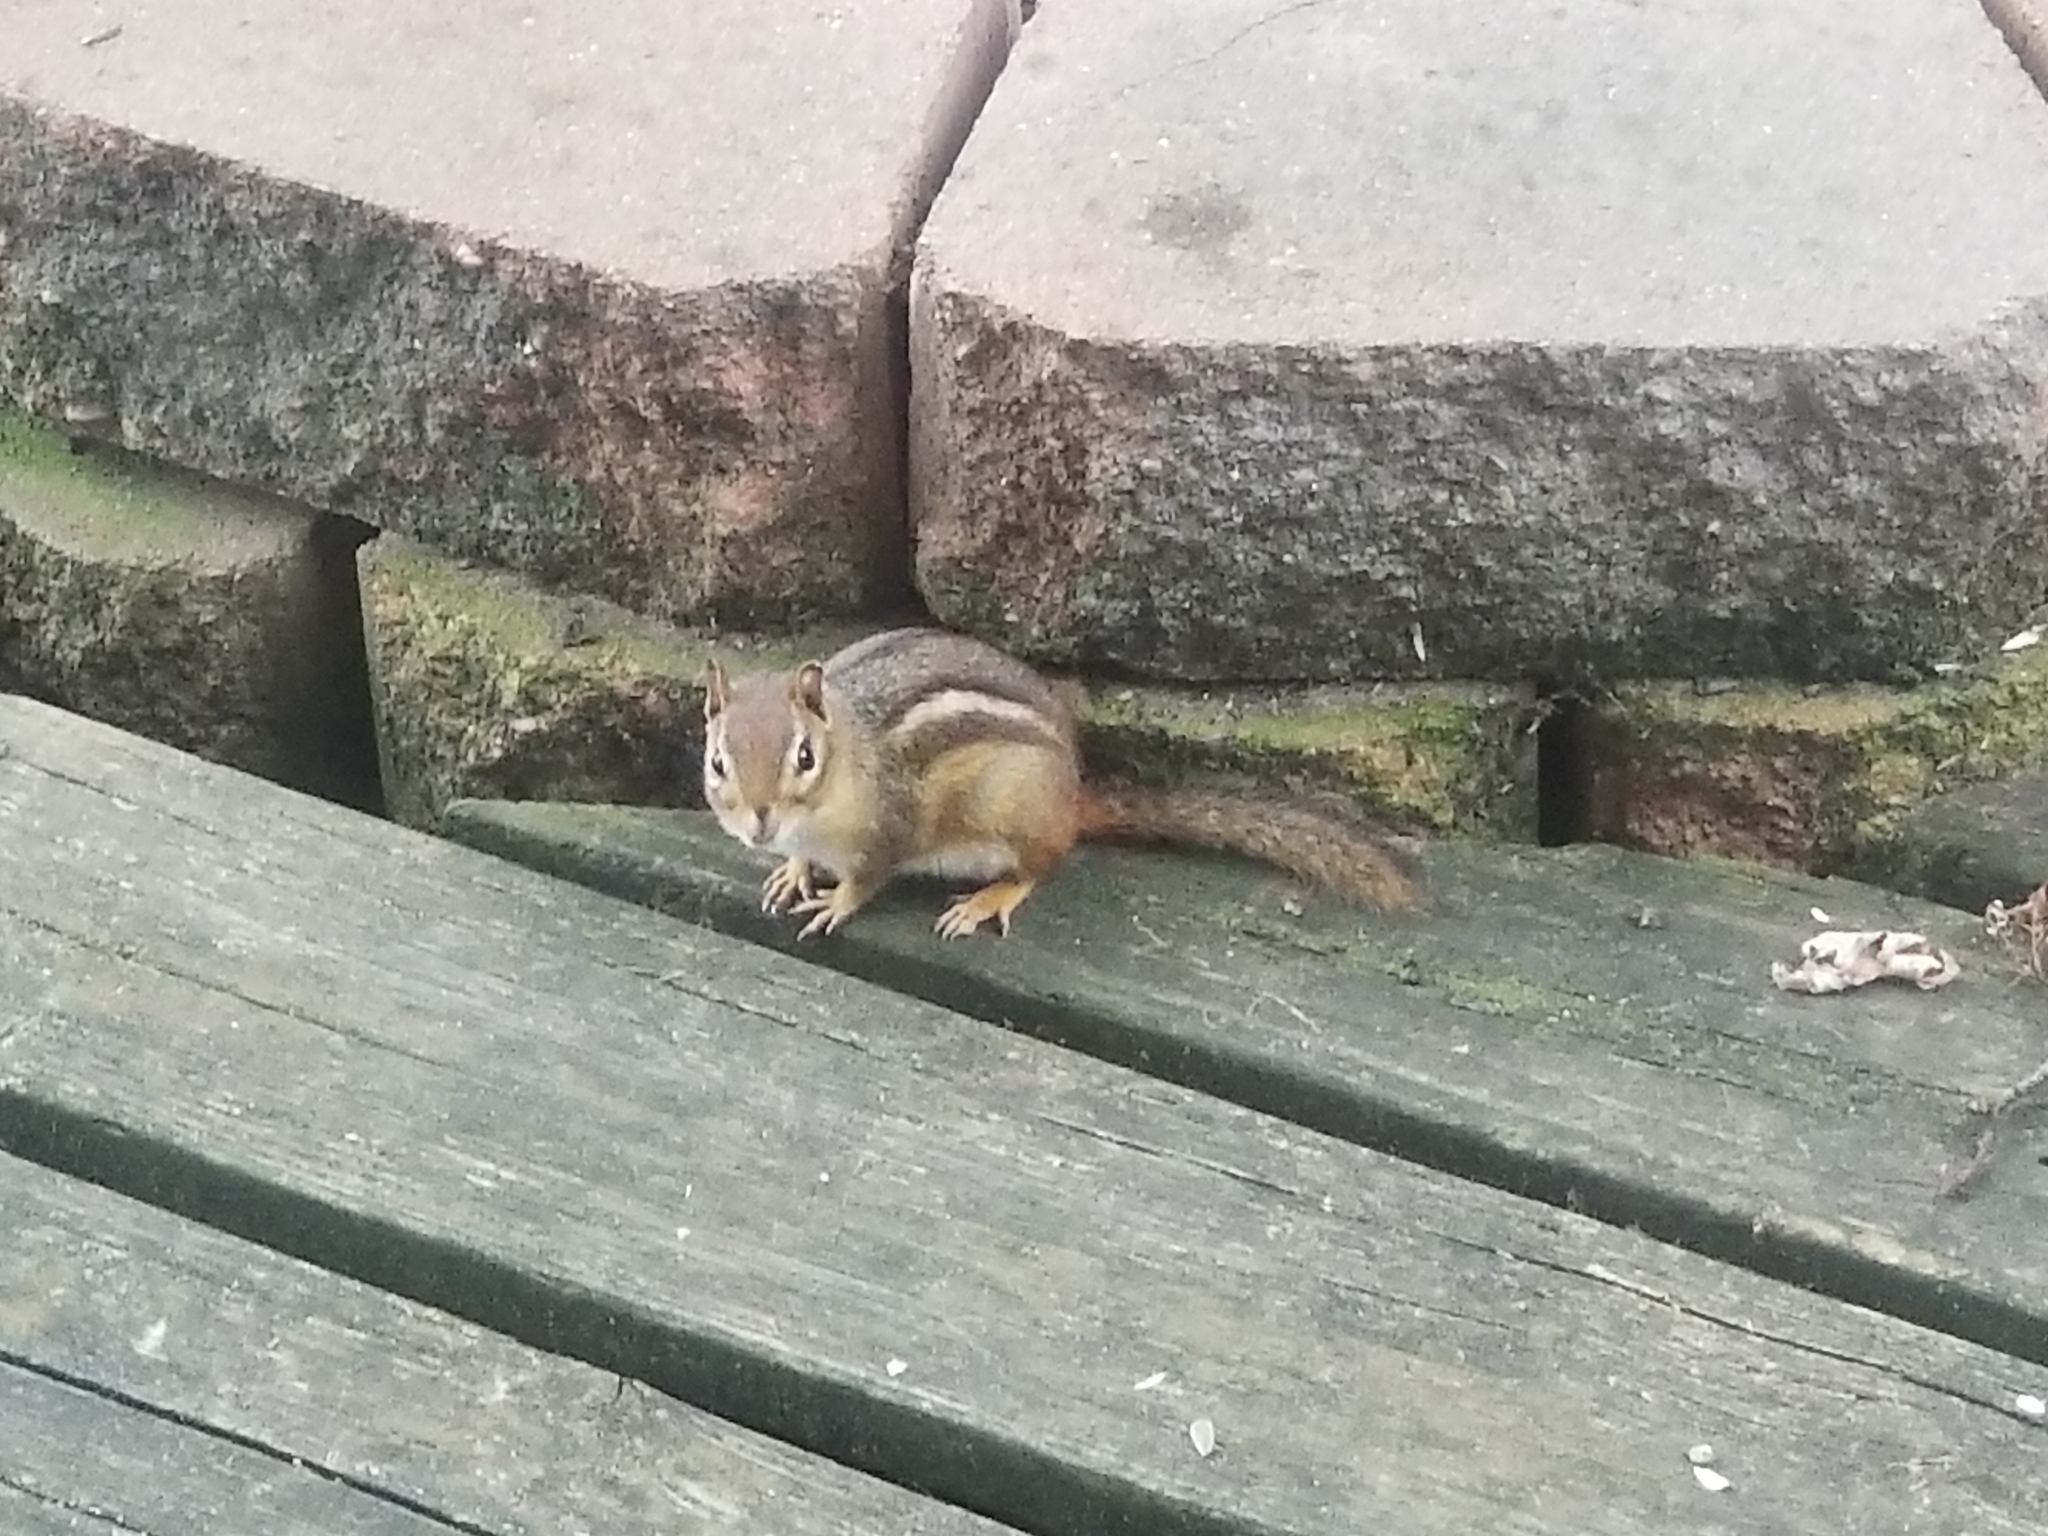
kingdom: Animalia
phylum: Chordata
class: Mammalia
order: Rodentia
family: Sciuridae
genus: Tamias
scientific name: Tamias striatus
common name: Eastern chipmunk
